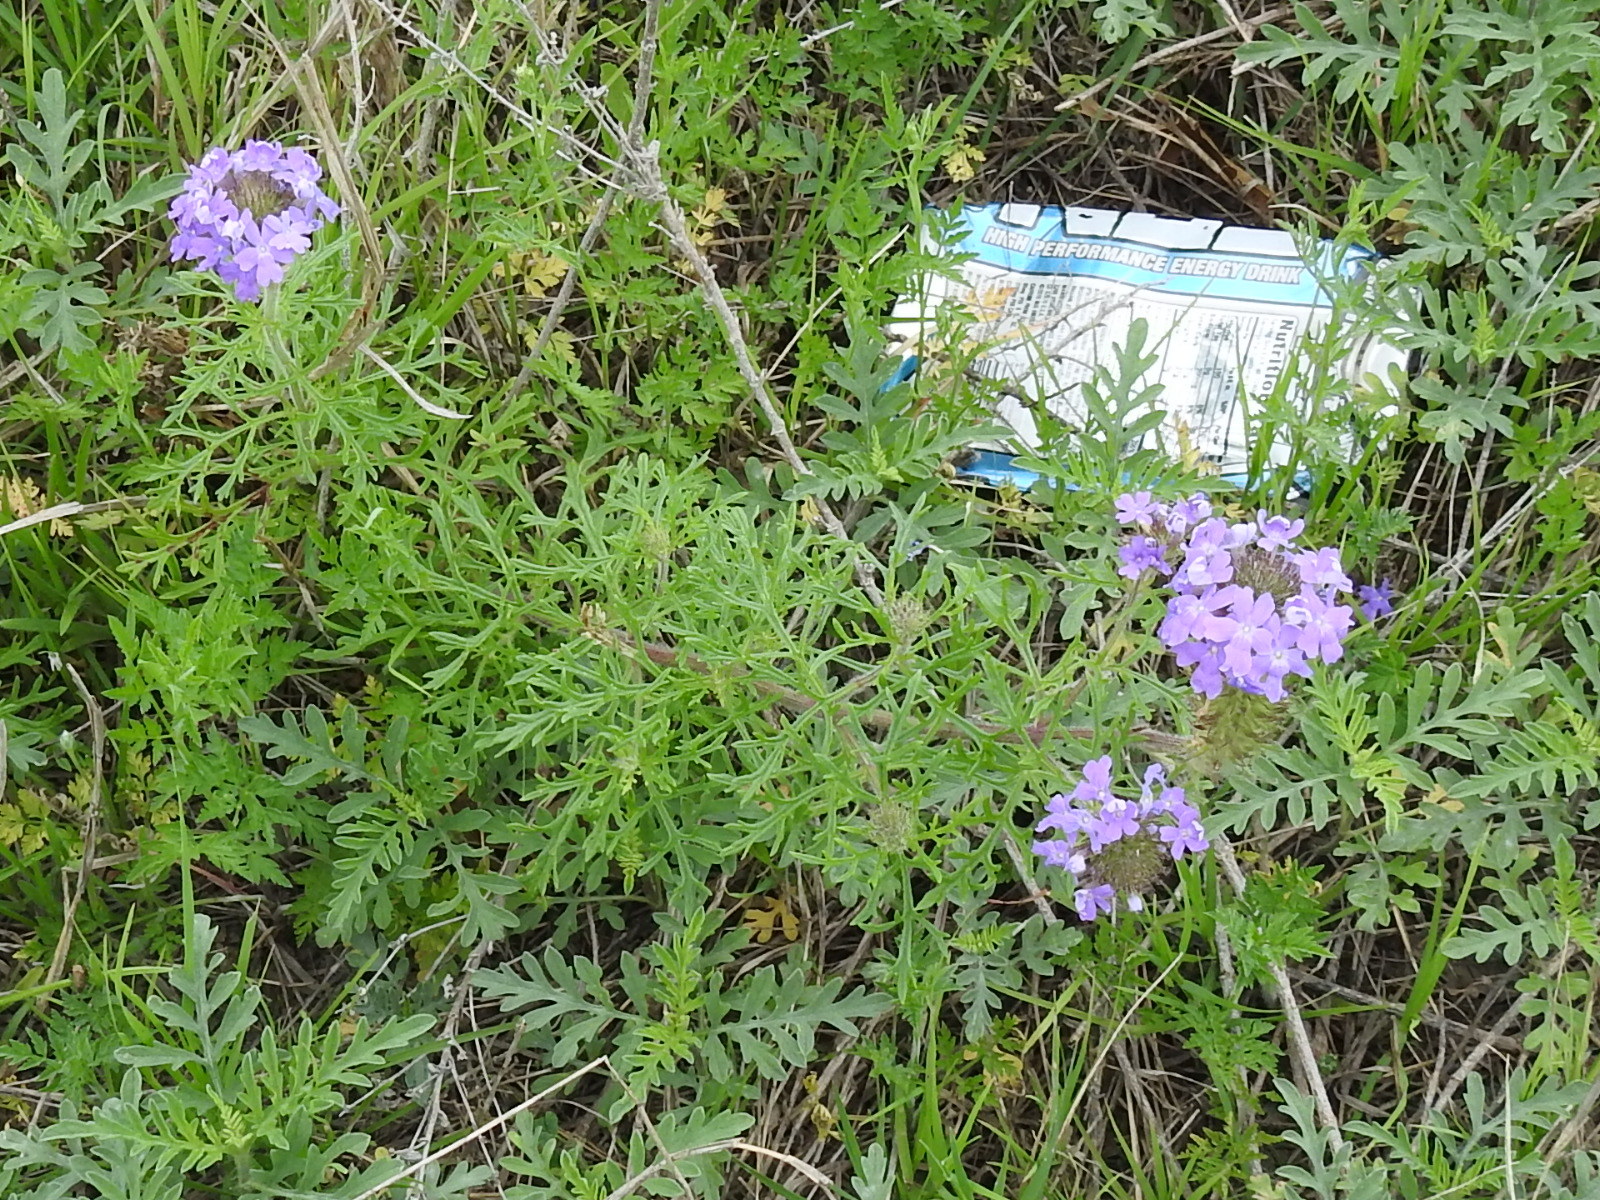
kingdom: Plantae
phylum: Tracheophyta
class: Magnoliopsida
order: Lamiales
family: Verbenaceae
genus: Verbena
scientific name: Verbena bipinnatifida
